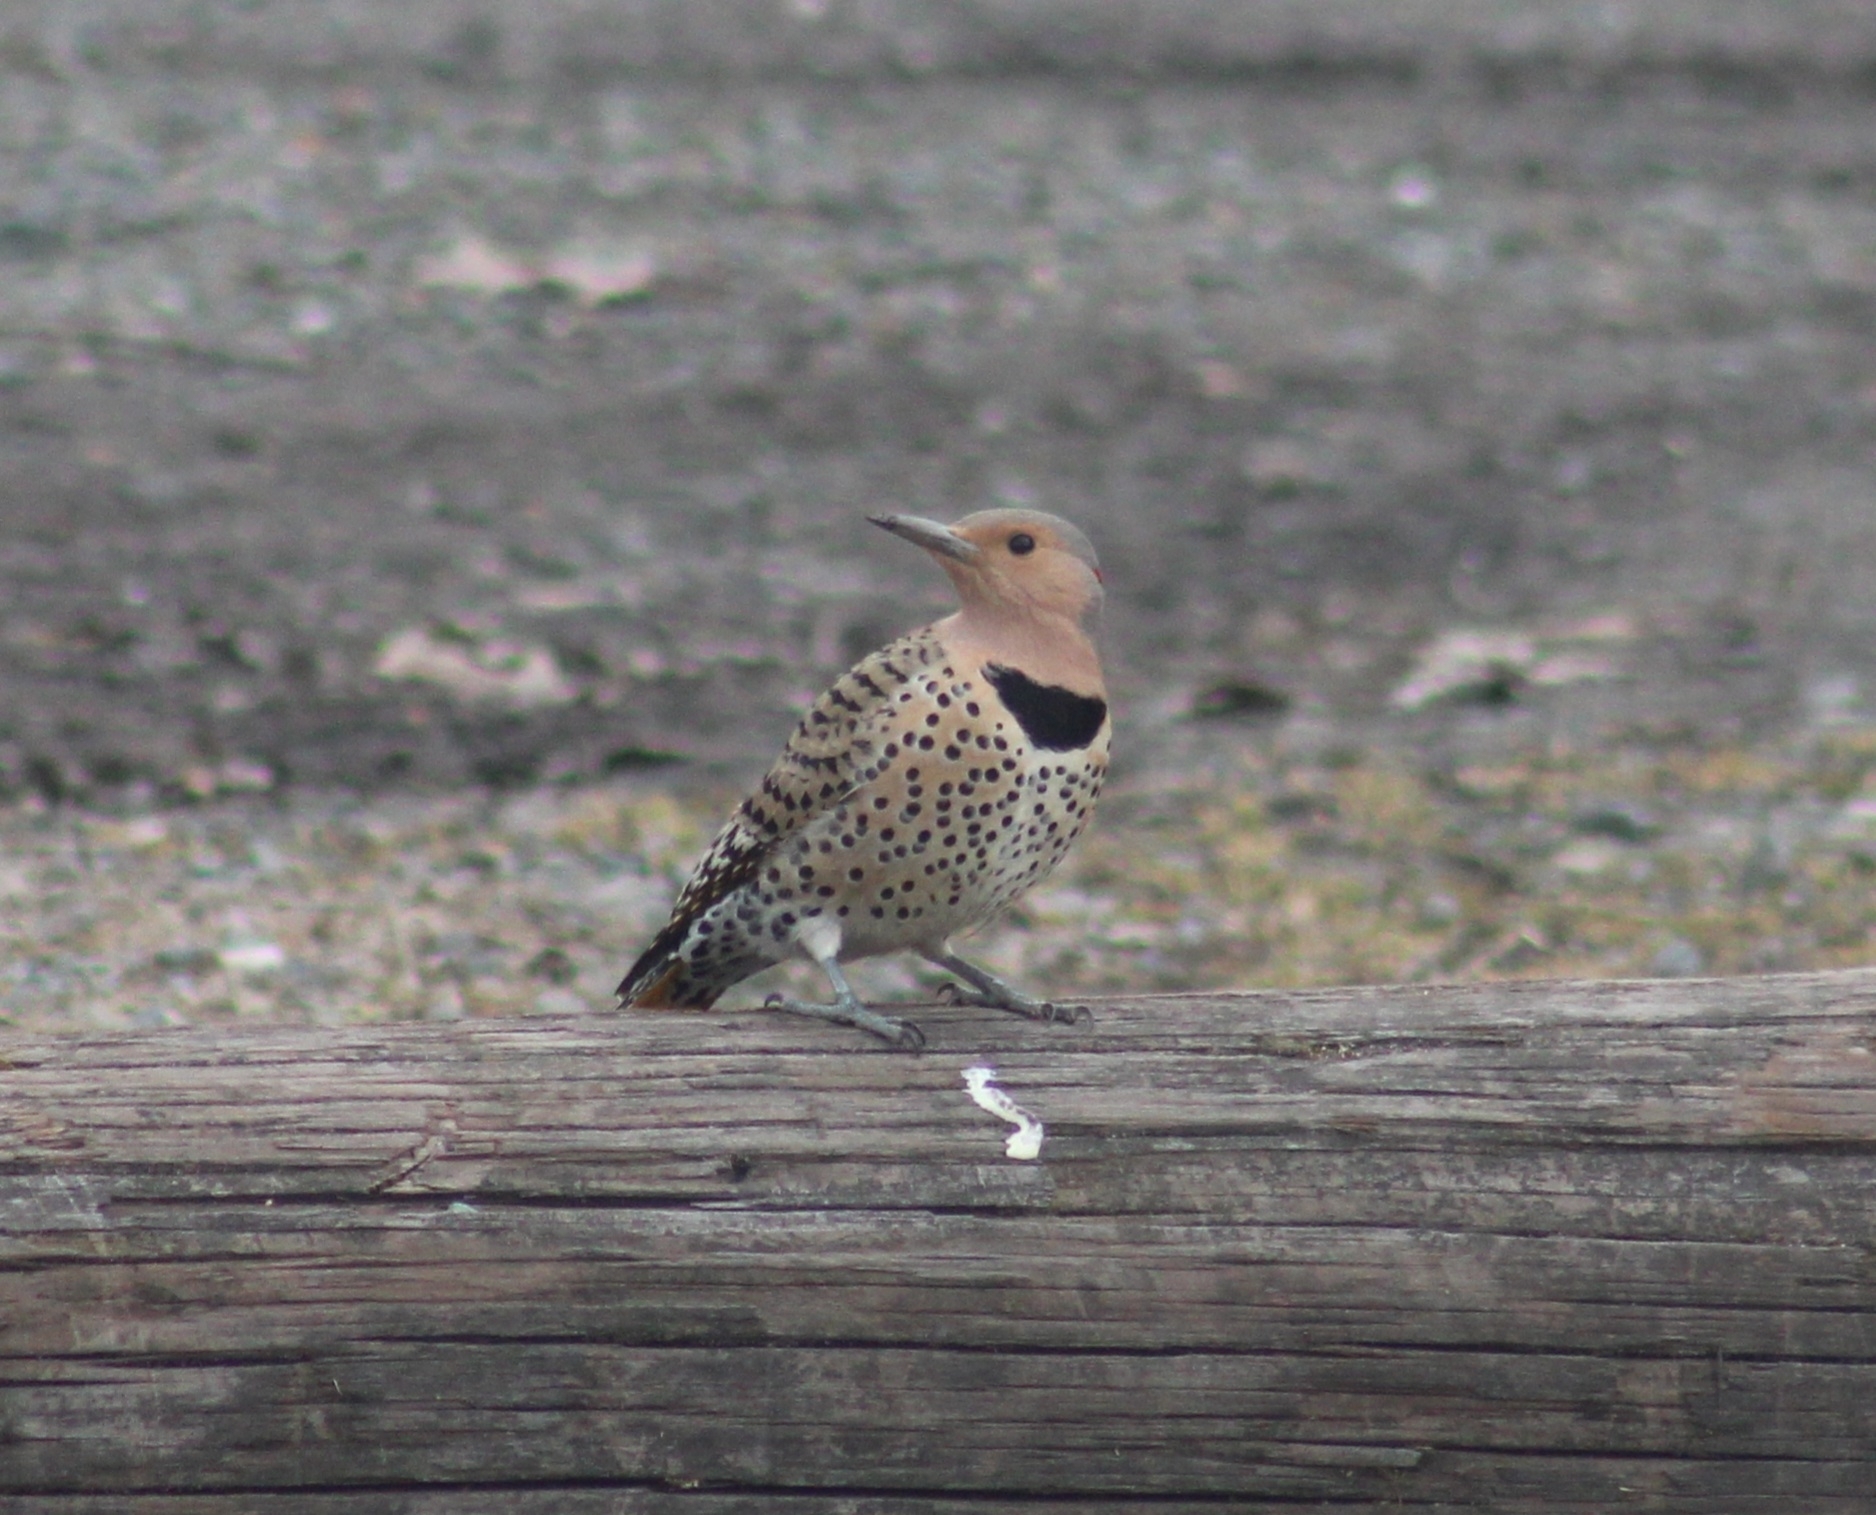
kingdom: Animalia
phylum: Chordata
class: Aves
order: Piciformes
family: Picidae
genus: Colaptes
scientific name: Colaptes auratus
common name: Northern flicker
